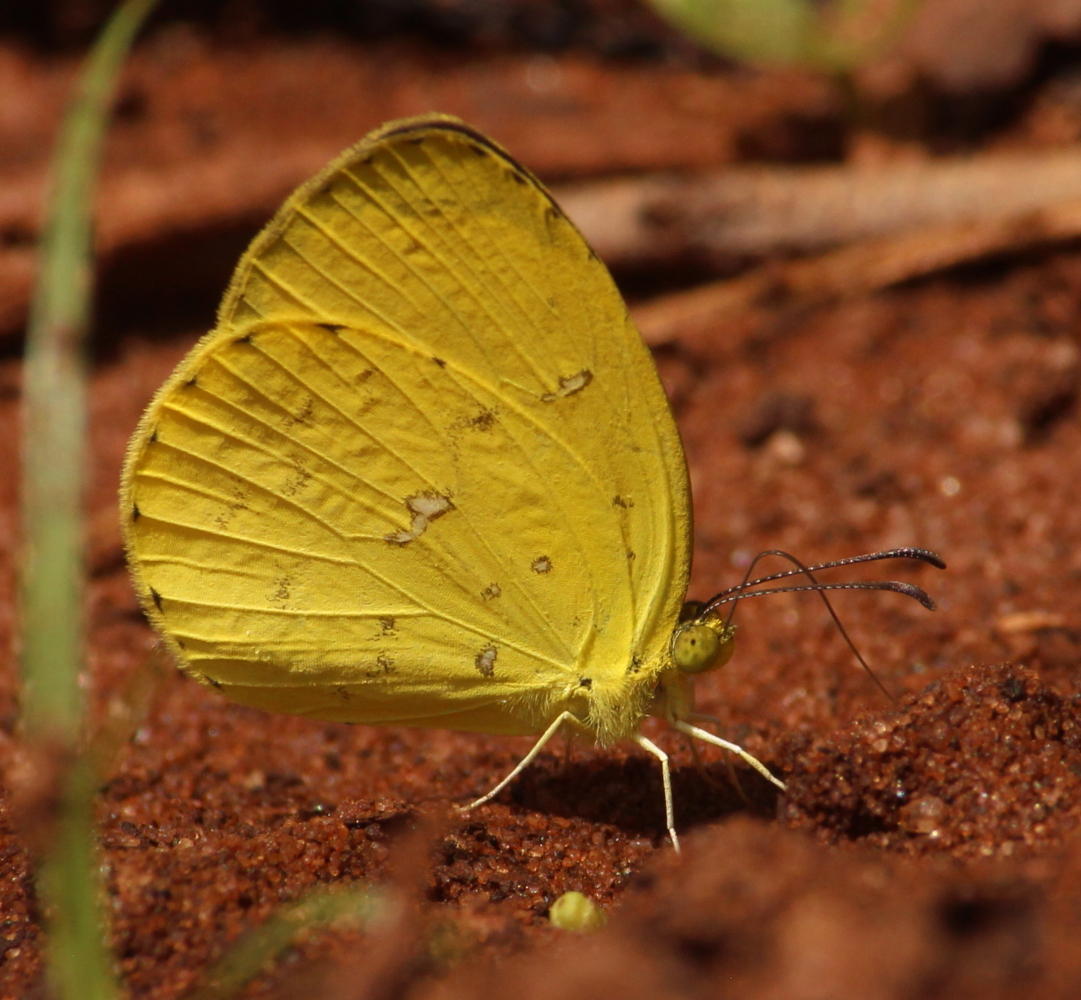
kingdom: Animalia
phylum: Arthropoda
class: Insecta
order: Lepidoptera
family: Pieridae
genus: Eurema
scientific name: Eurema floricola
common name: Malagasy grass yellow
